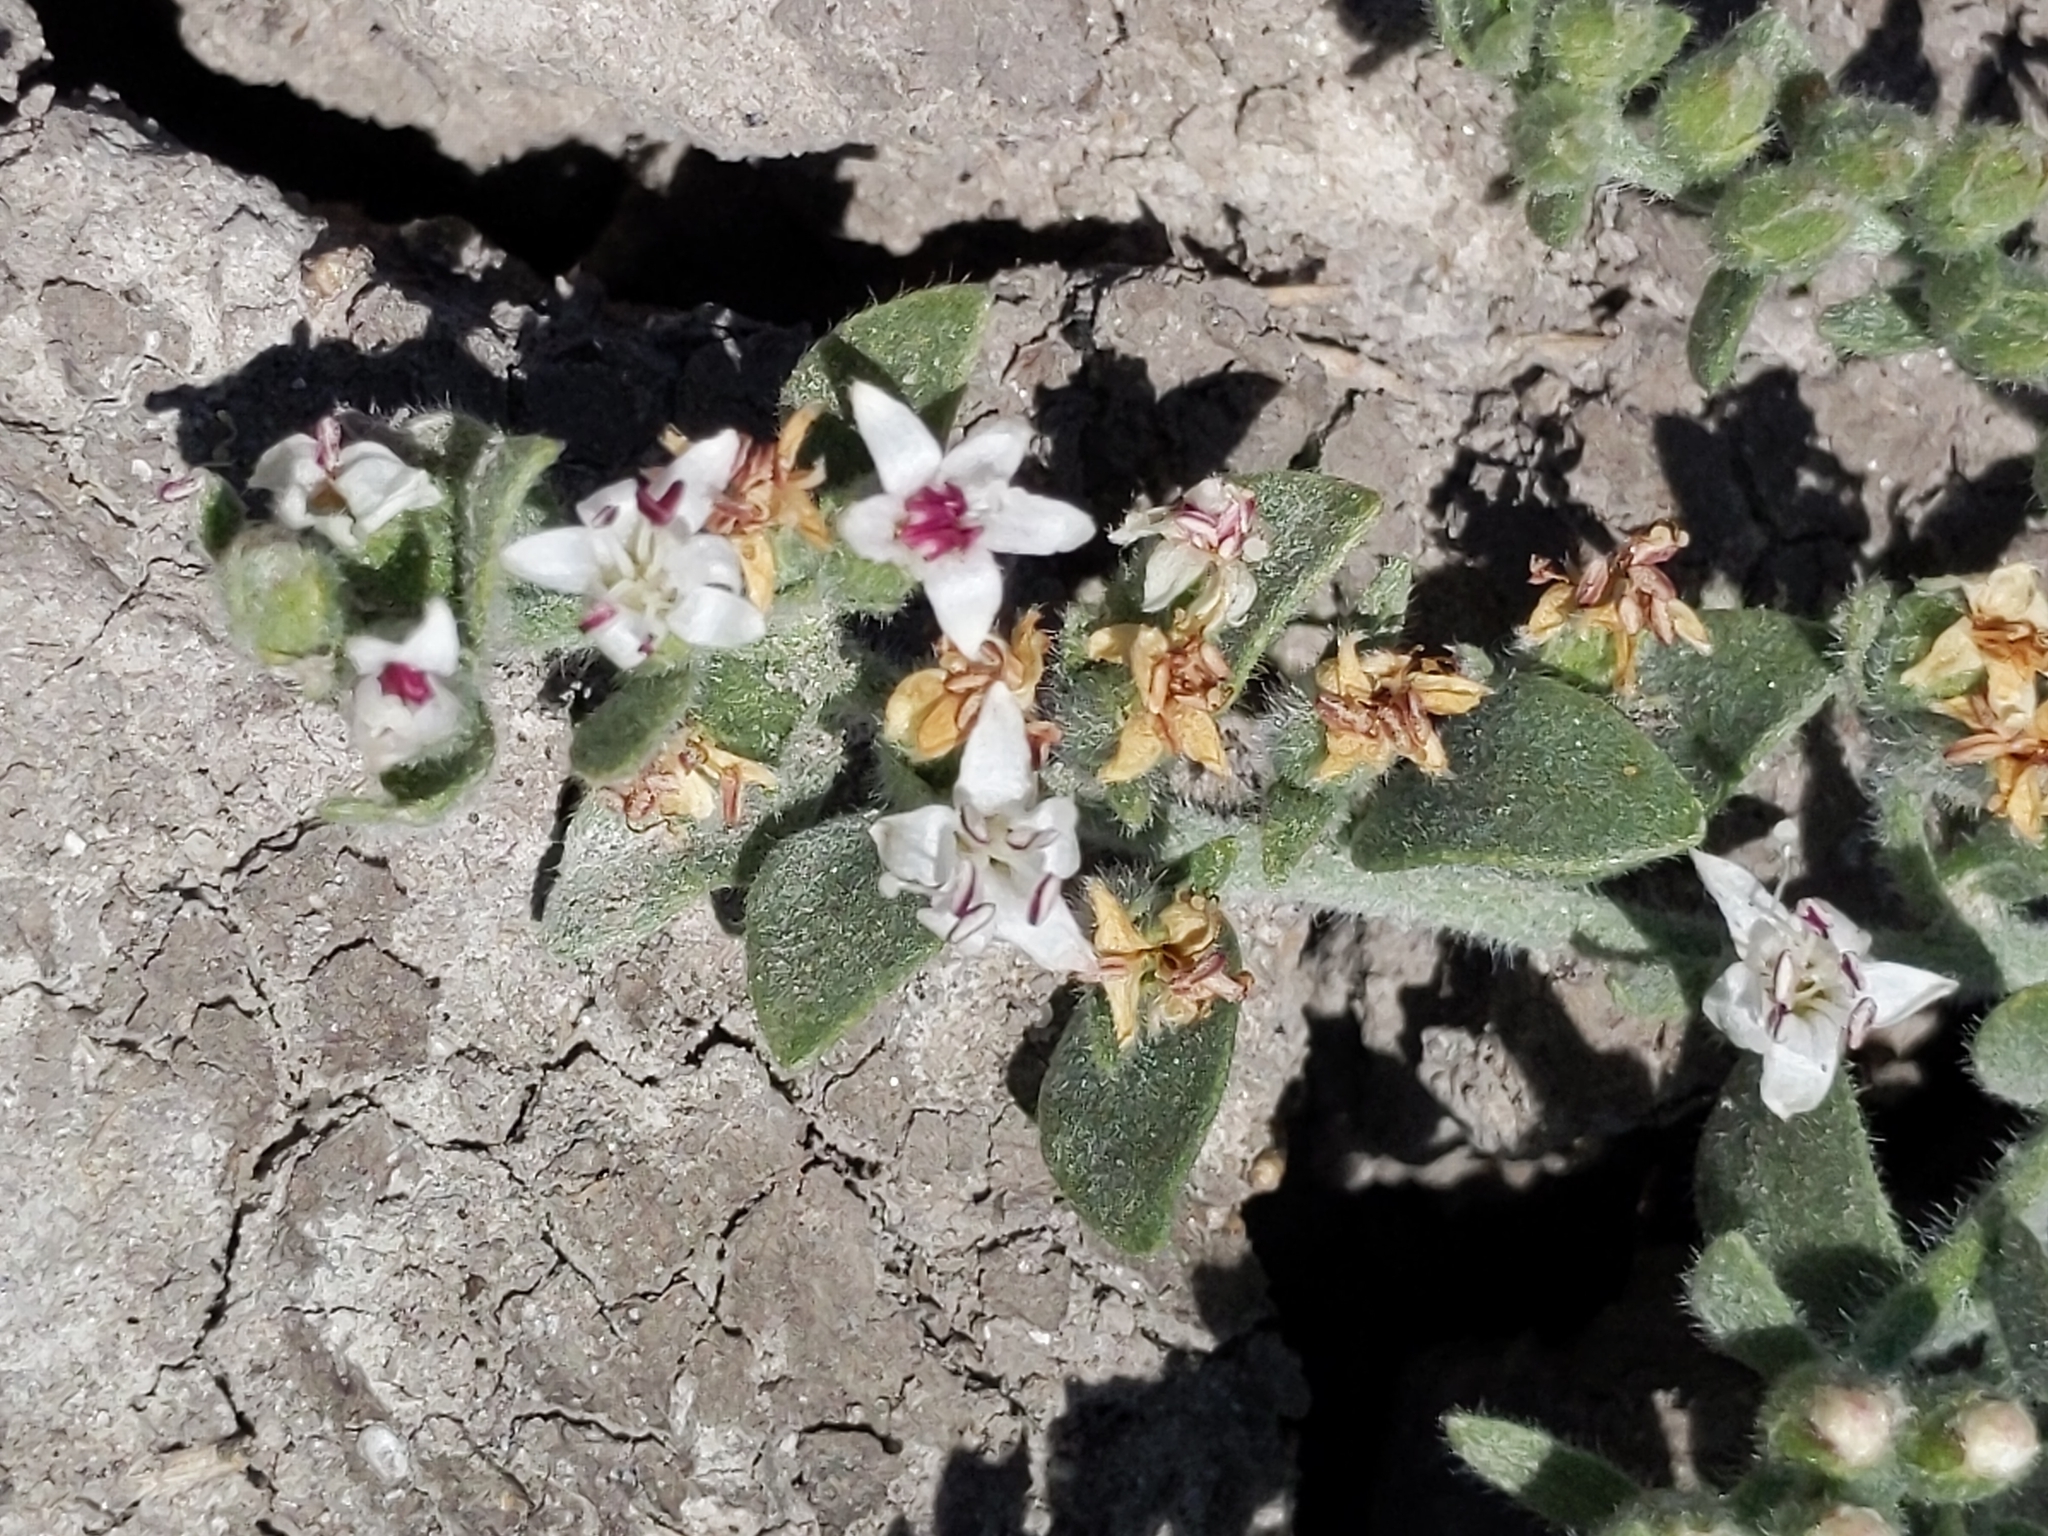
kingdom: Plantae
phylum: Tracheophyta
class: Magnoliopsida
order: Solanales
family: Convolvulaceae
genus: Cressa
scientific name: Cressa truxillensis
